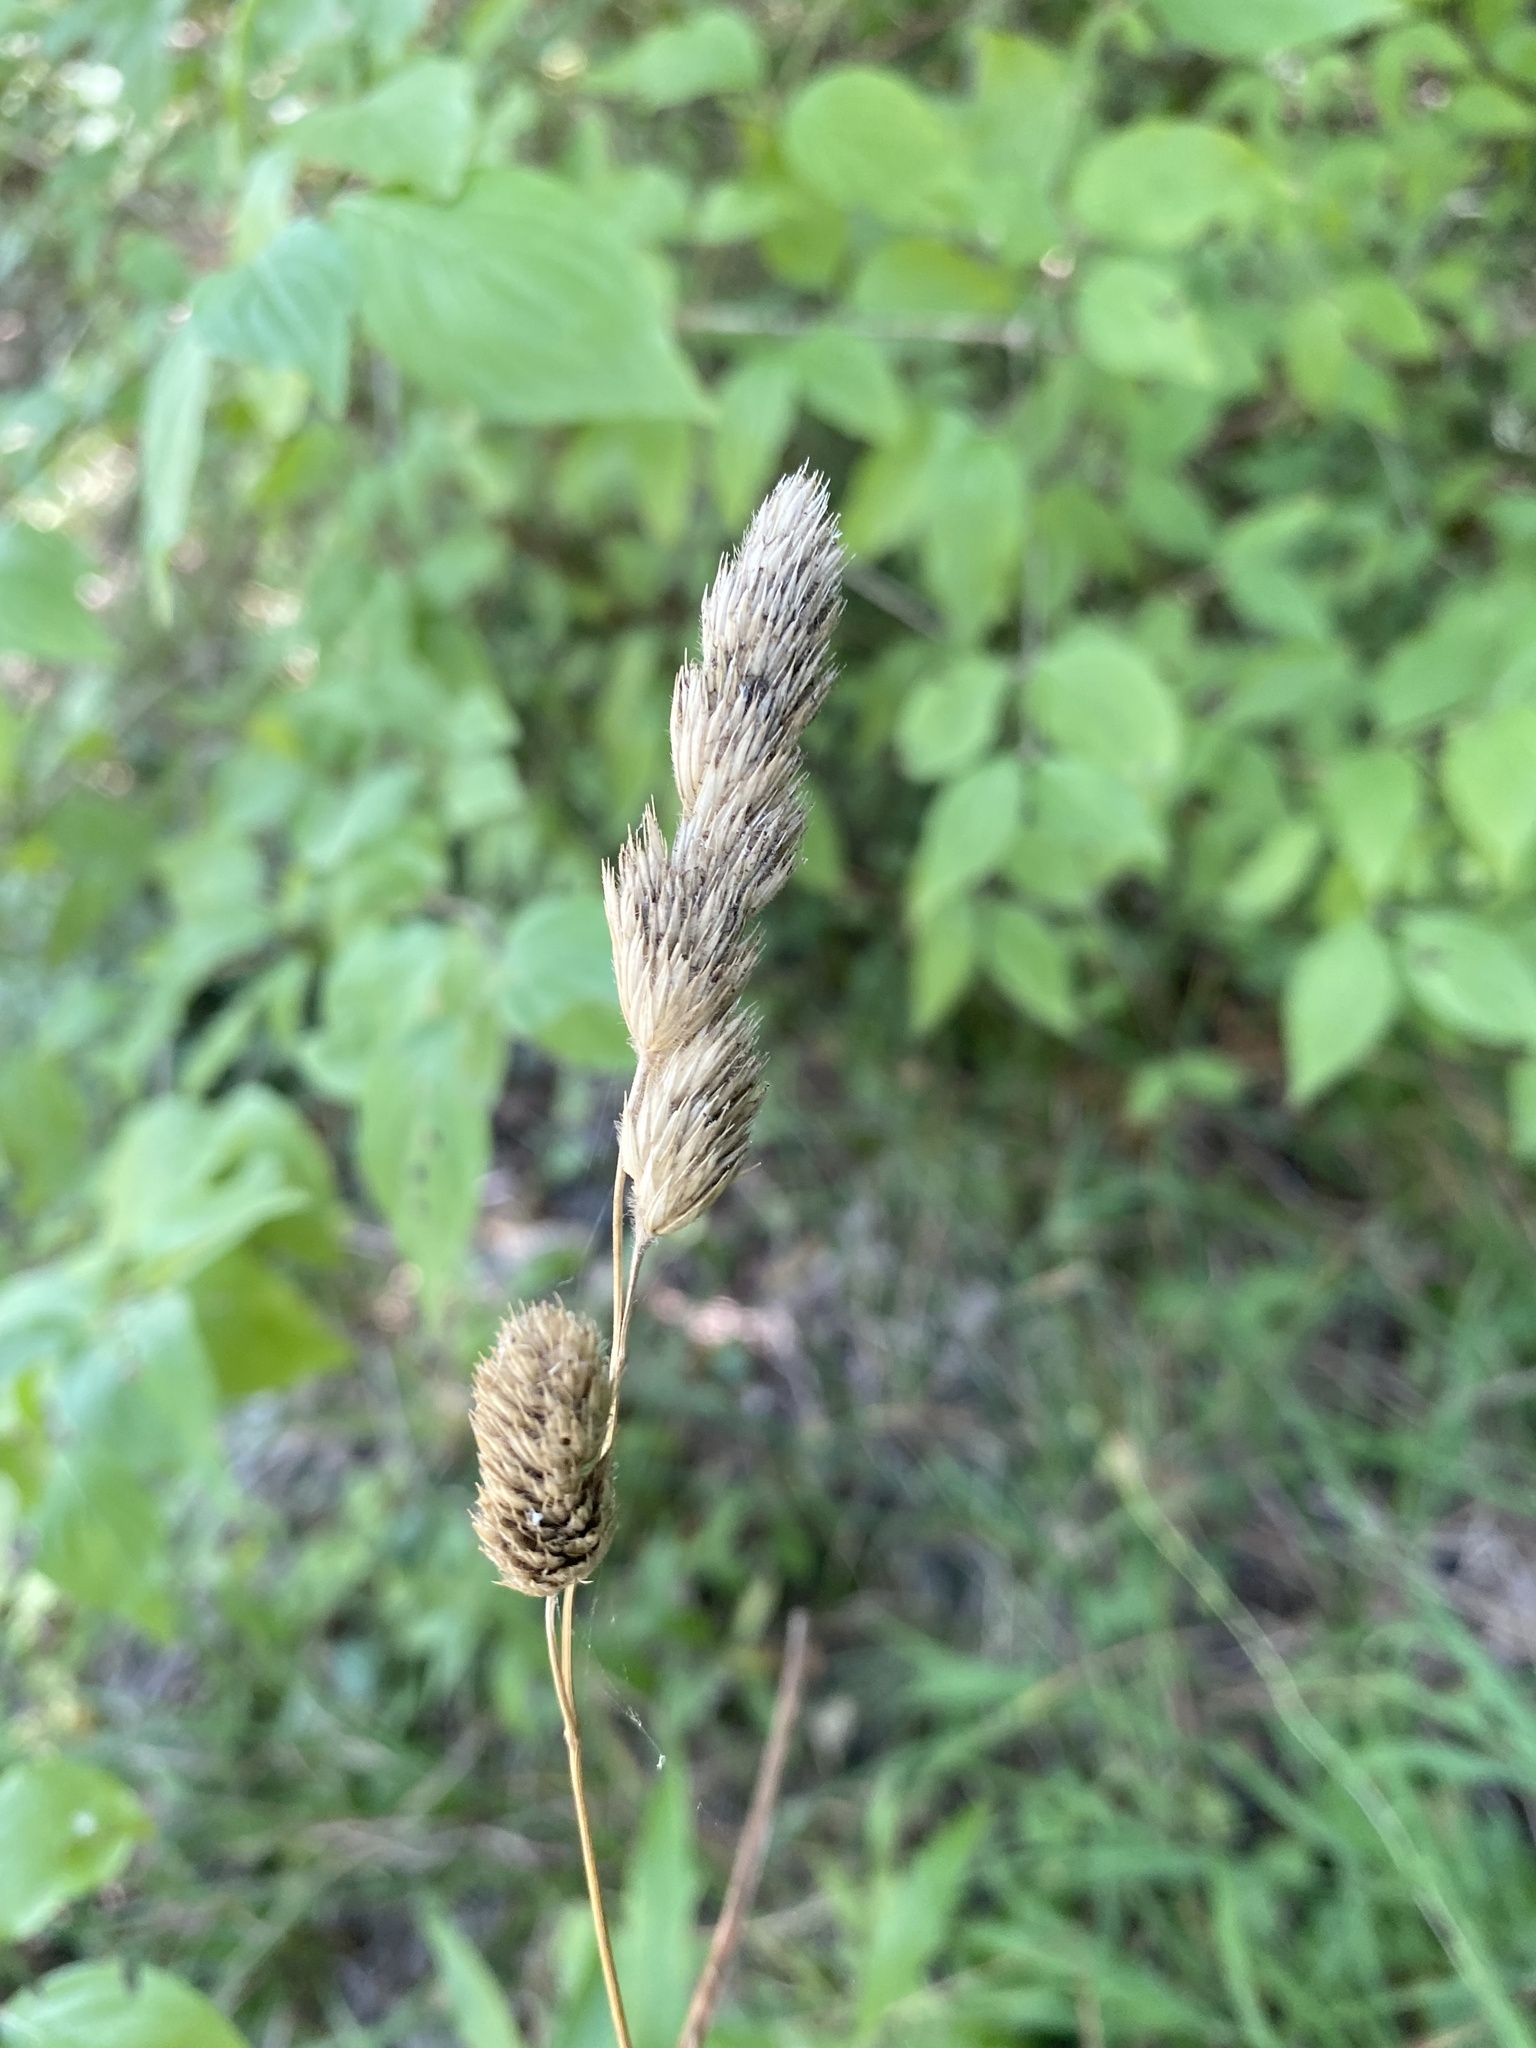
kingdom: Plantae
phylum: Tracheophyta
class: Liliopsida
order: Poales
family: Poaceae
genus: Dactylis
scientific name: Dactylis glomerata
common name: Orchardgrass
